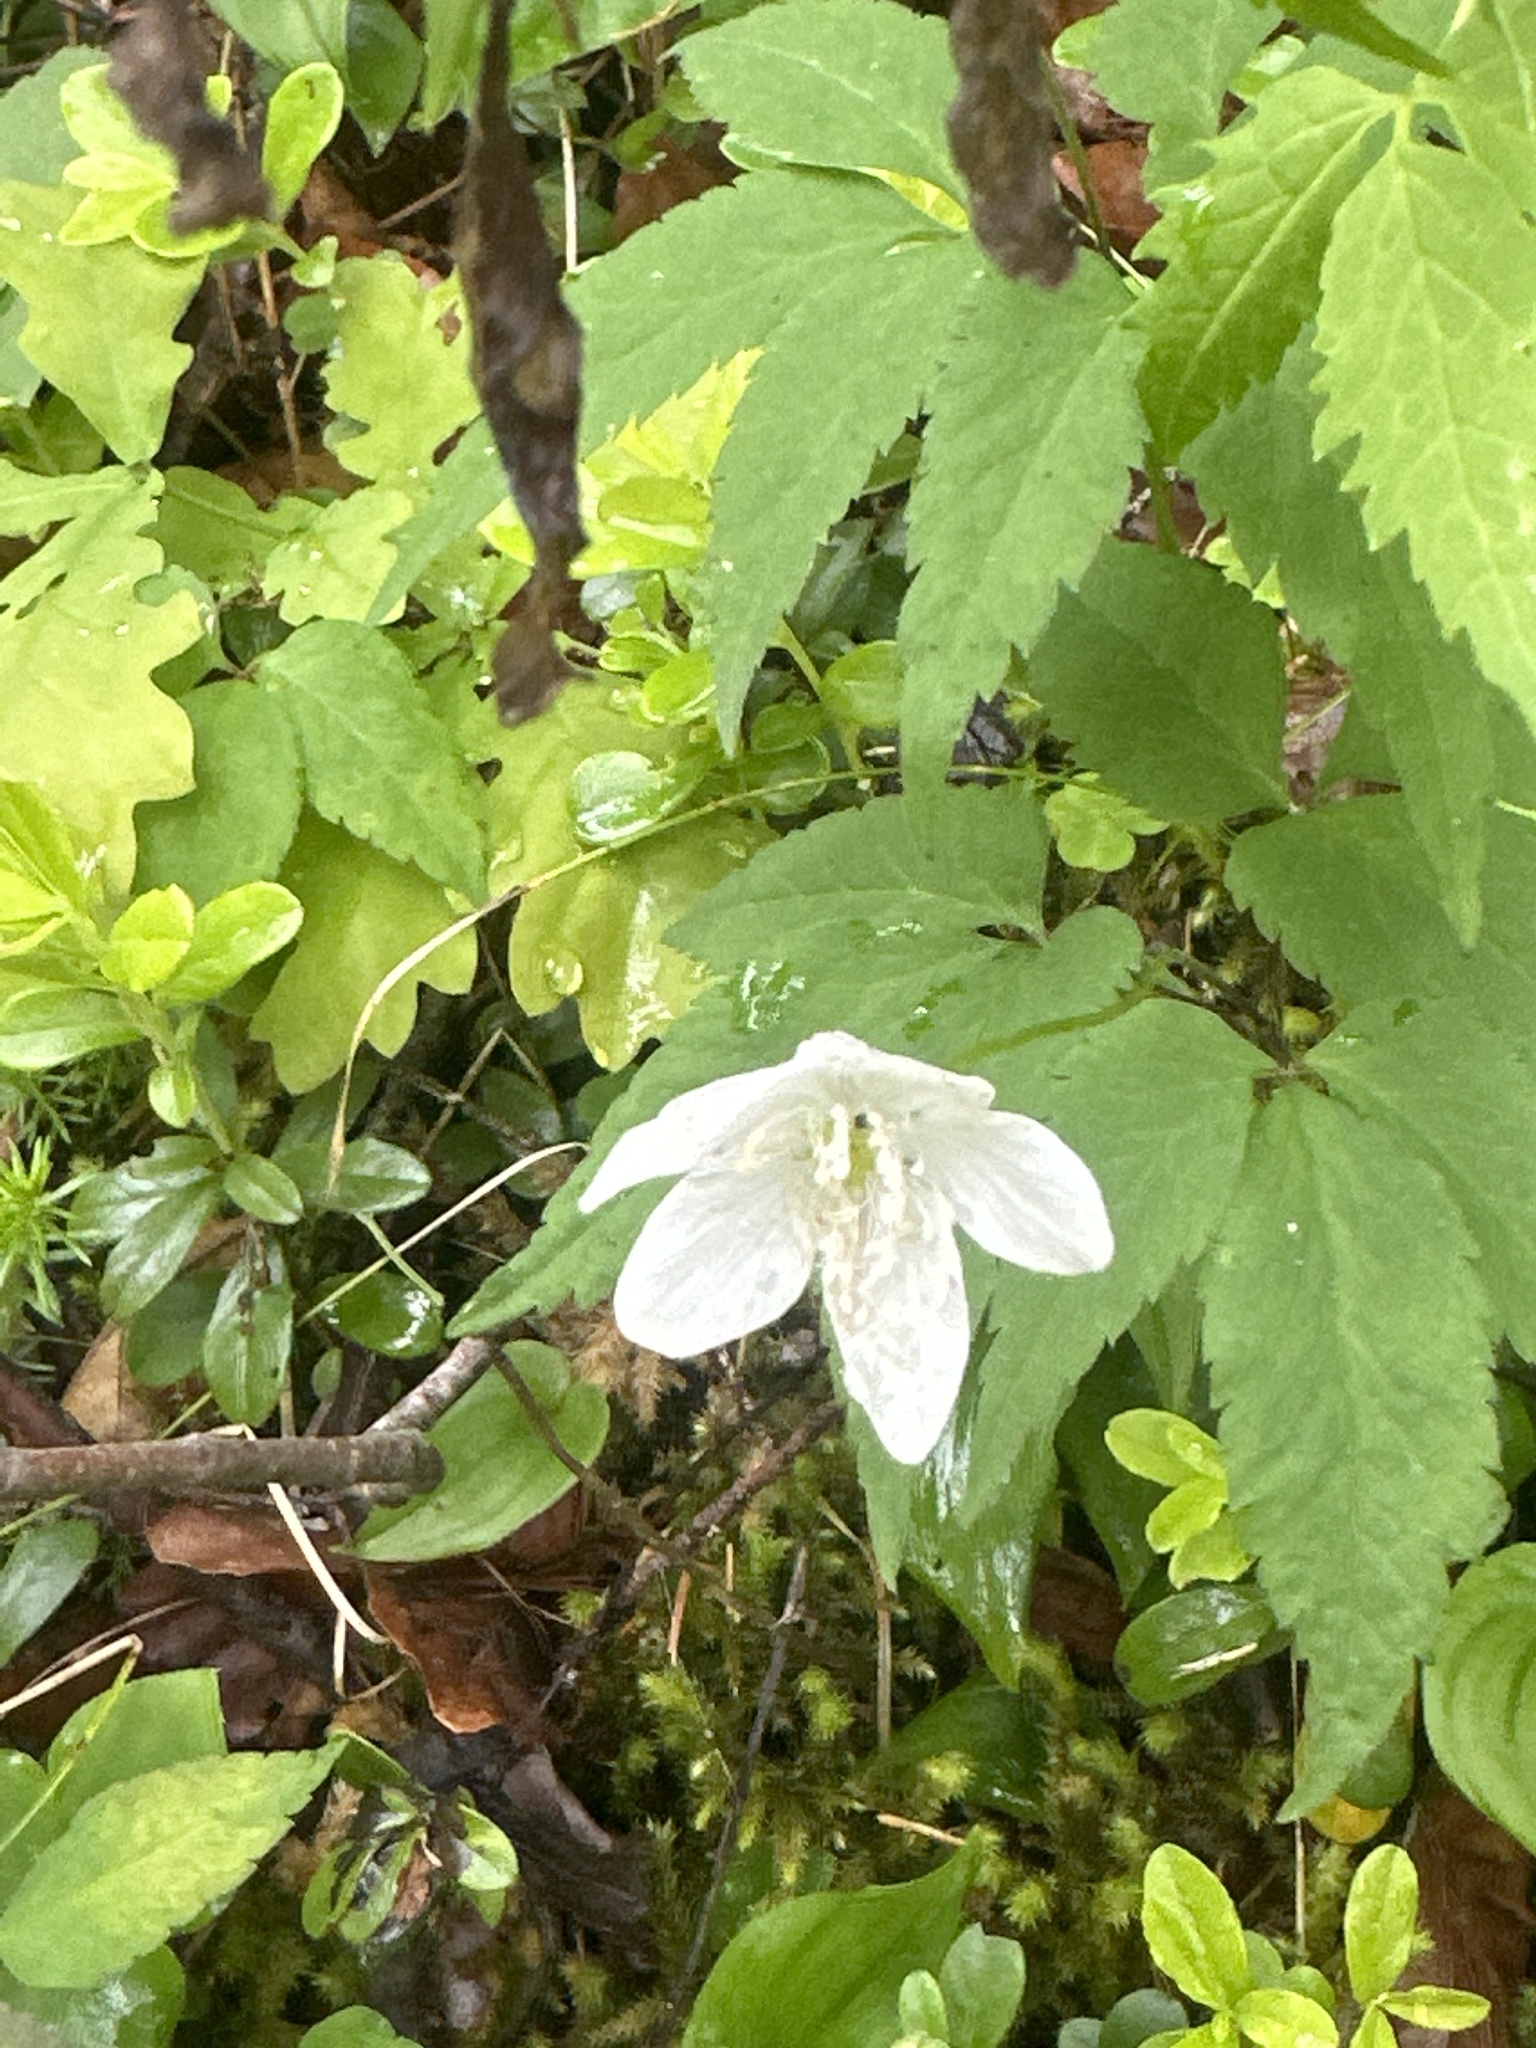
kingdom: Plantae
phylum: Tracheophyta
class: Magnoliopsida
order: Ranunculales
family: Ranunculaceae
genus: Anemone
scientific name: Anemone trifolia
